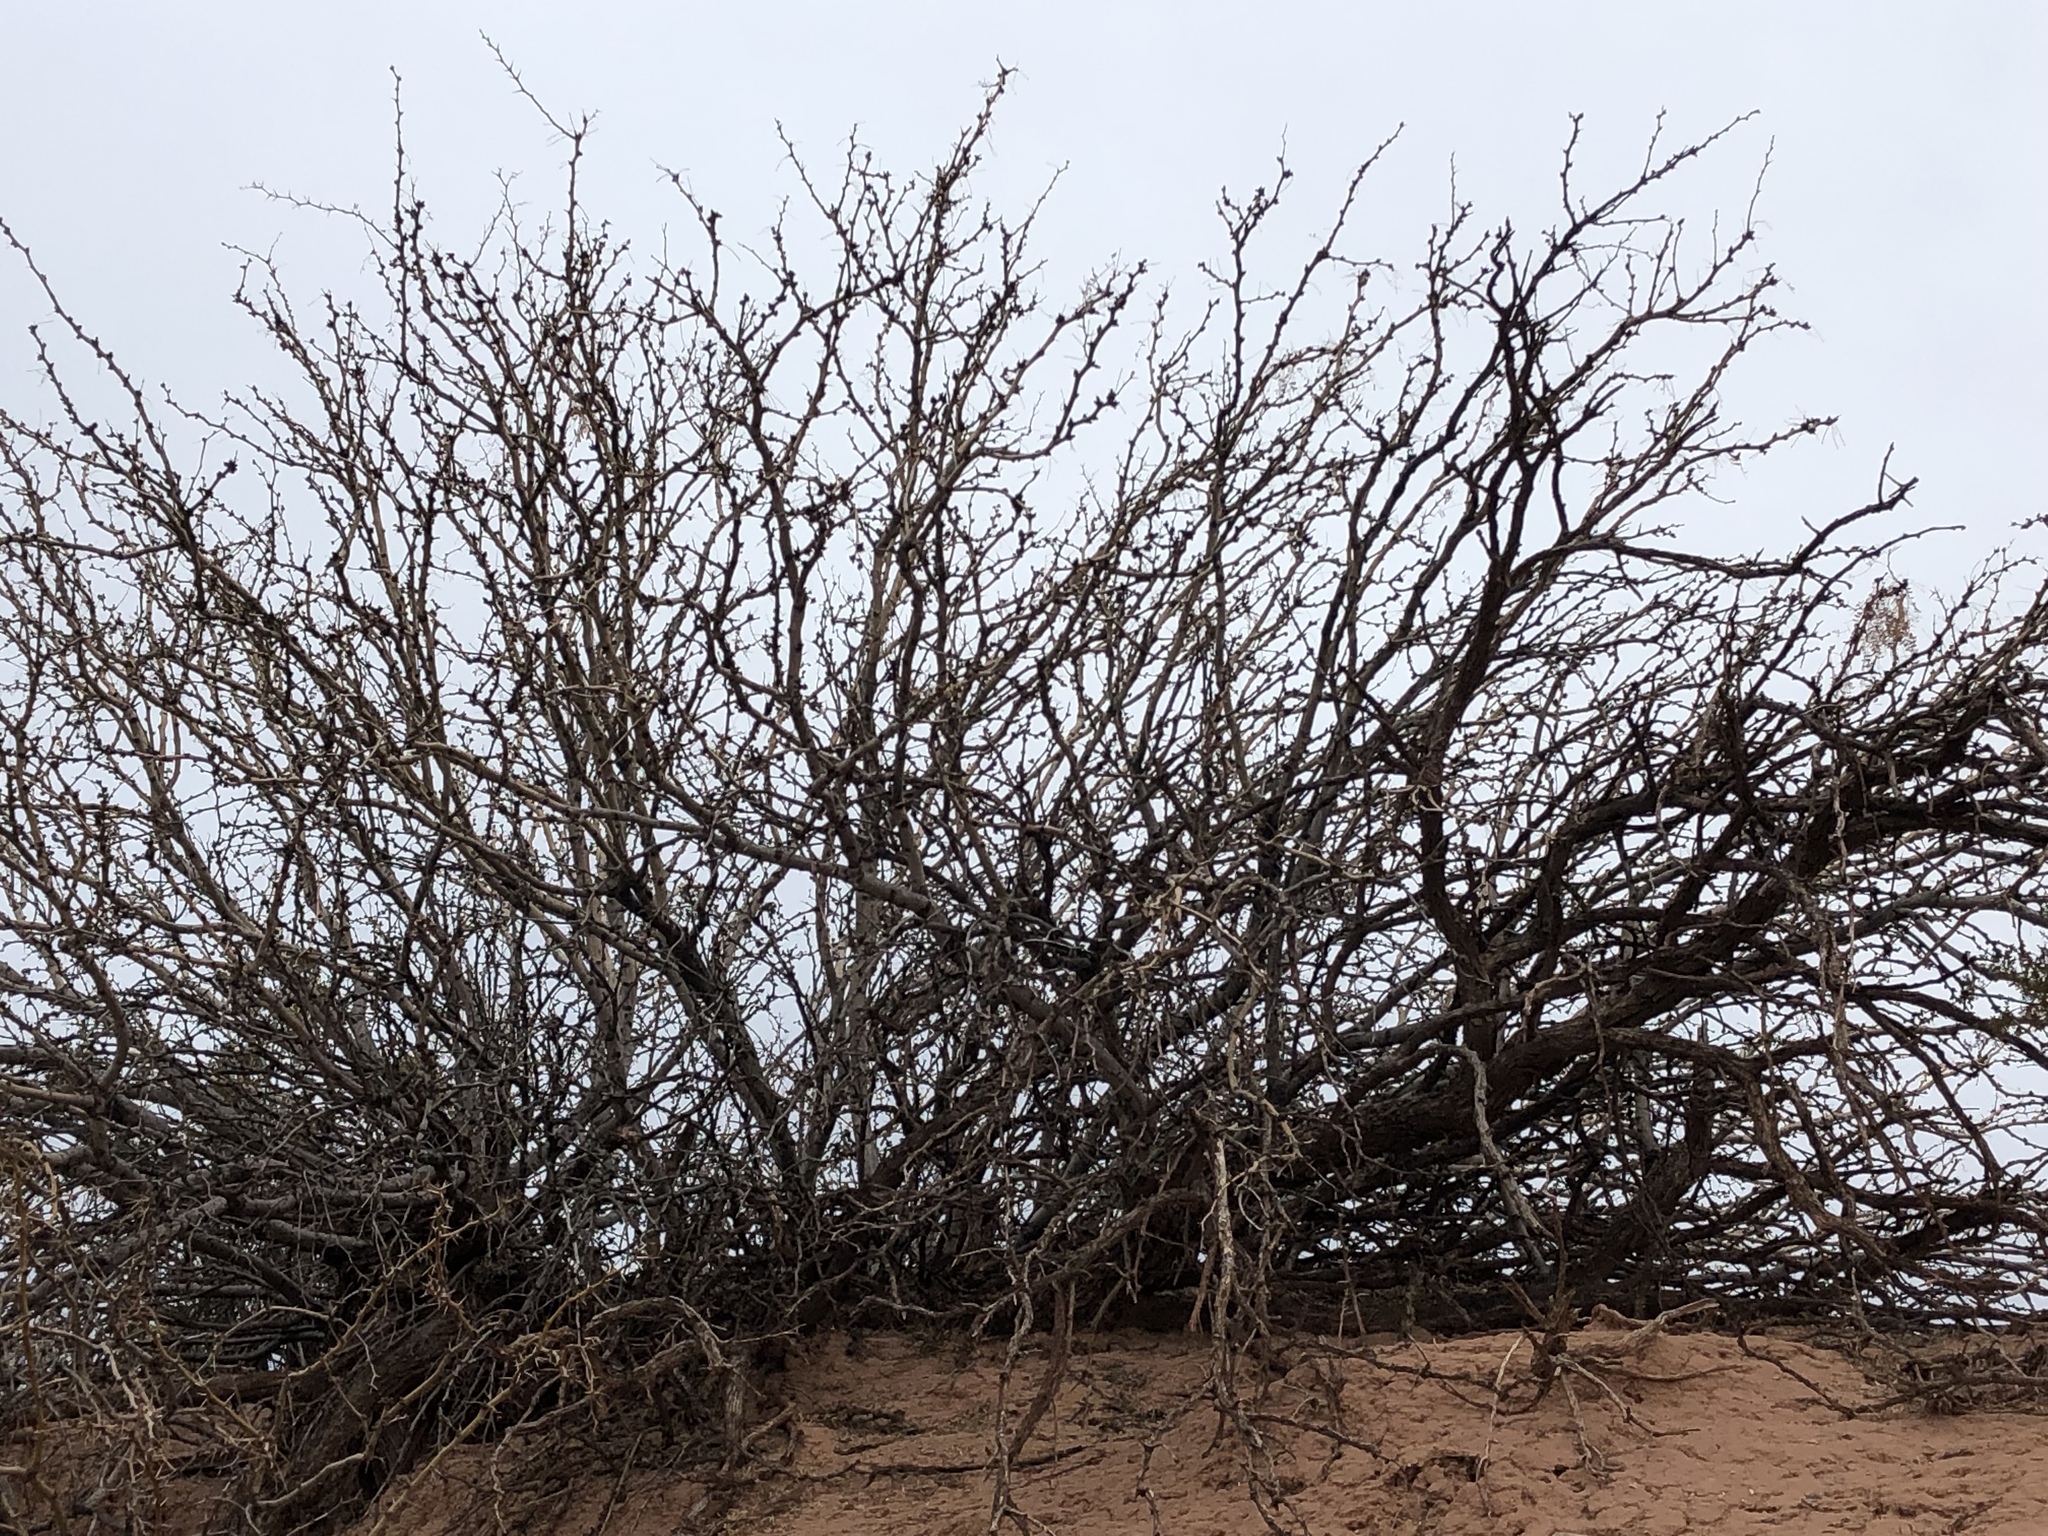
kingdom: Plantae
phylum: Tracheophyta
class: Magnoliopsida
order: Fabales
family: Fabaceae
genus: Prosopis
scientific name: Prosopis glandulosa
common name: Honey mesquite
